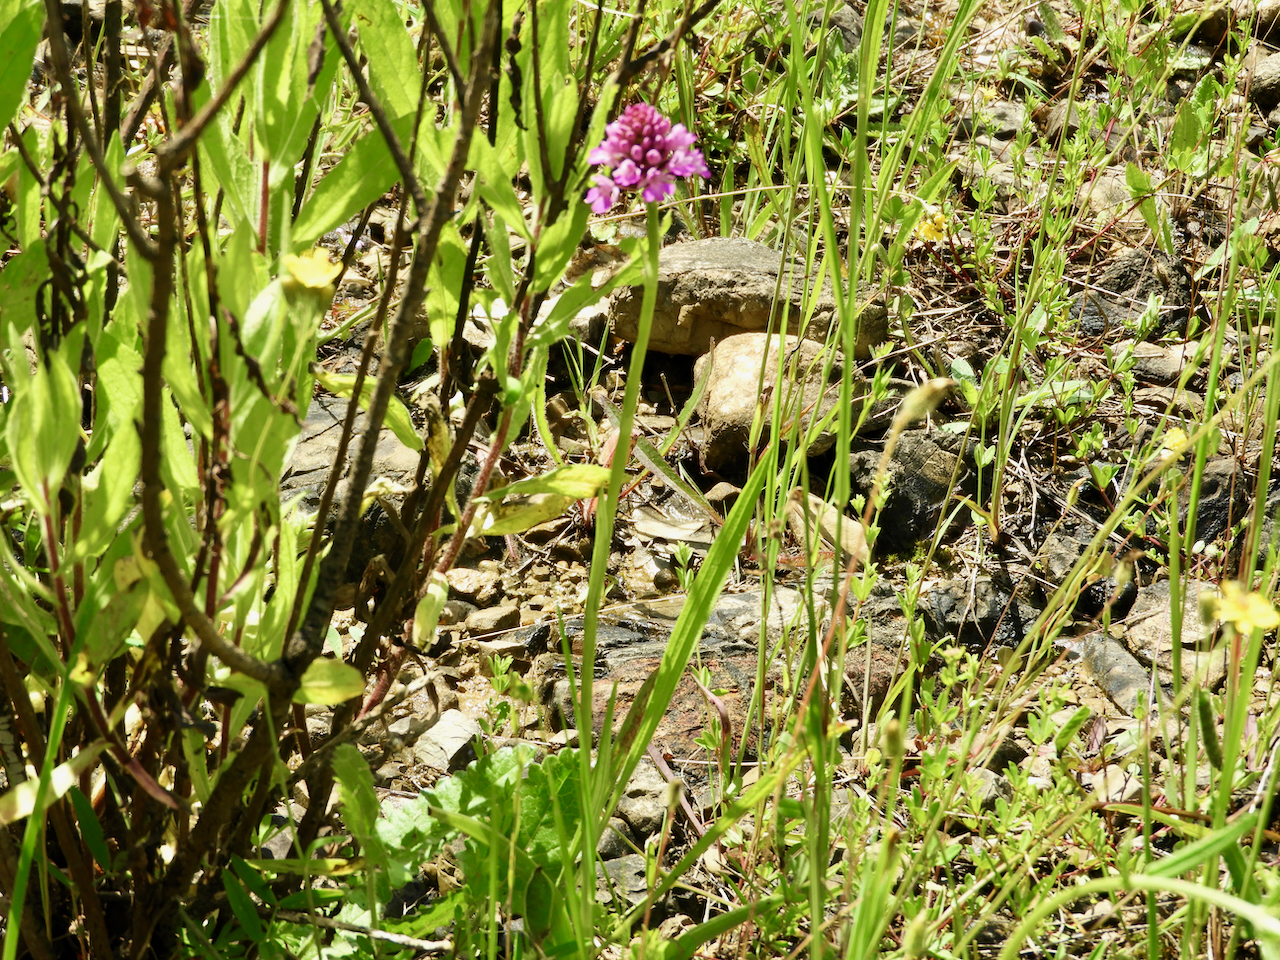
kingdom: Plantae
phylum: Tracheophyta
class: Liliopsida
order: Asparagales
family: Orchidaceae
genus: Anacamptis
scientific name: Anacamptis pyramidalis
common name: Pyramidal orchid
